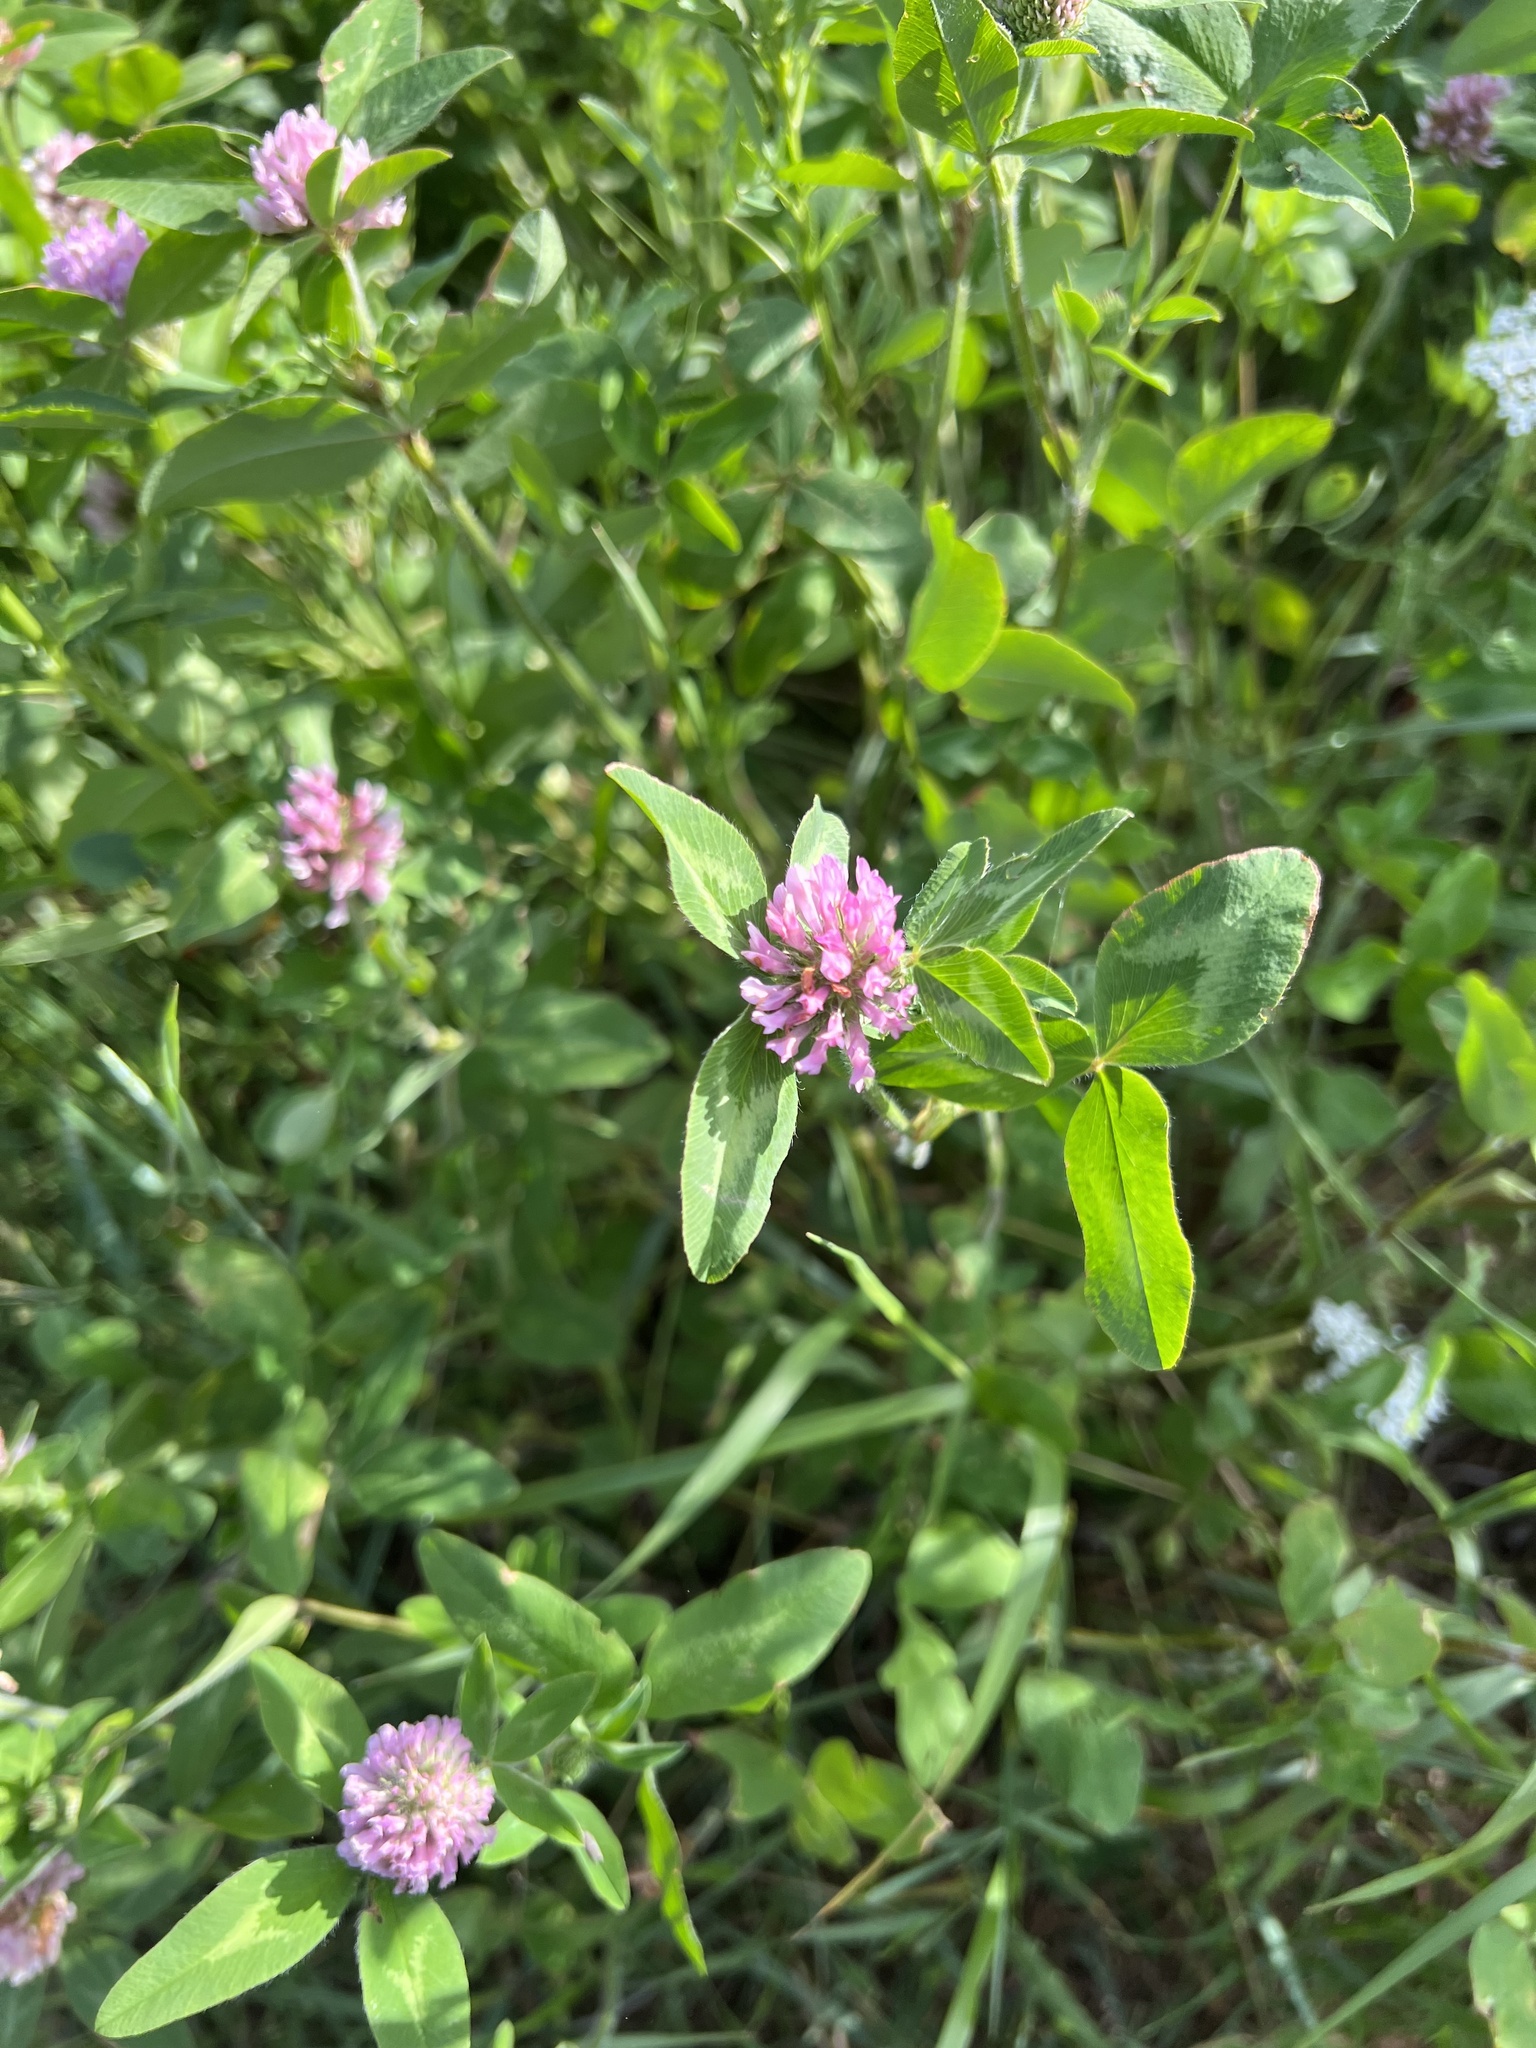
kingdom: Plantae
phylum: Tracheophyta
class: Magnoliopsida
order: Fabales
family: Fabaceae
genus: Trifolium
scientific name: Trifolium pratense
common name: Red clover
